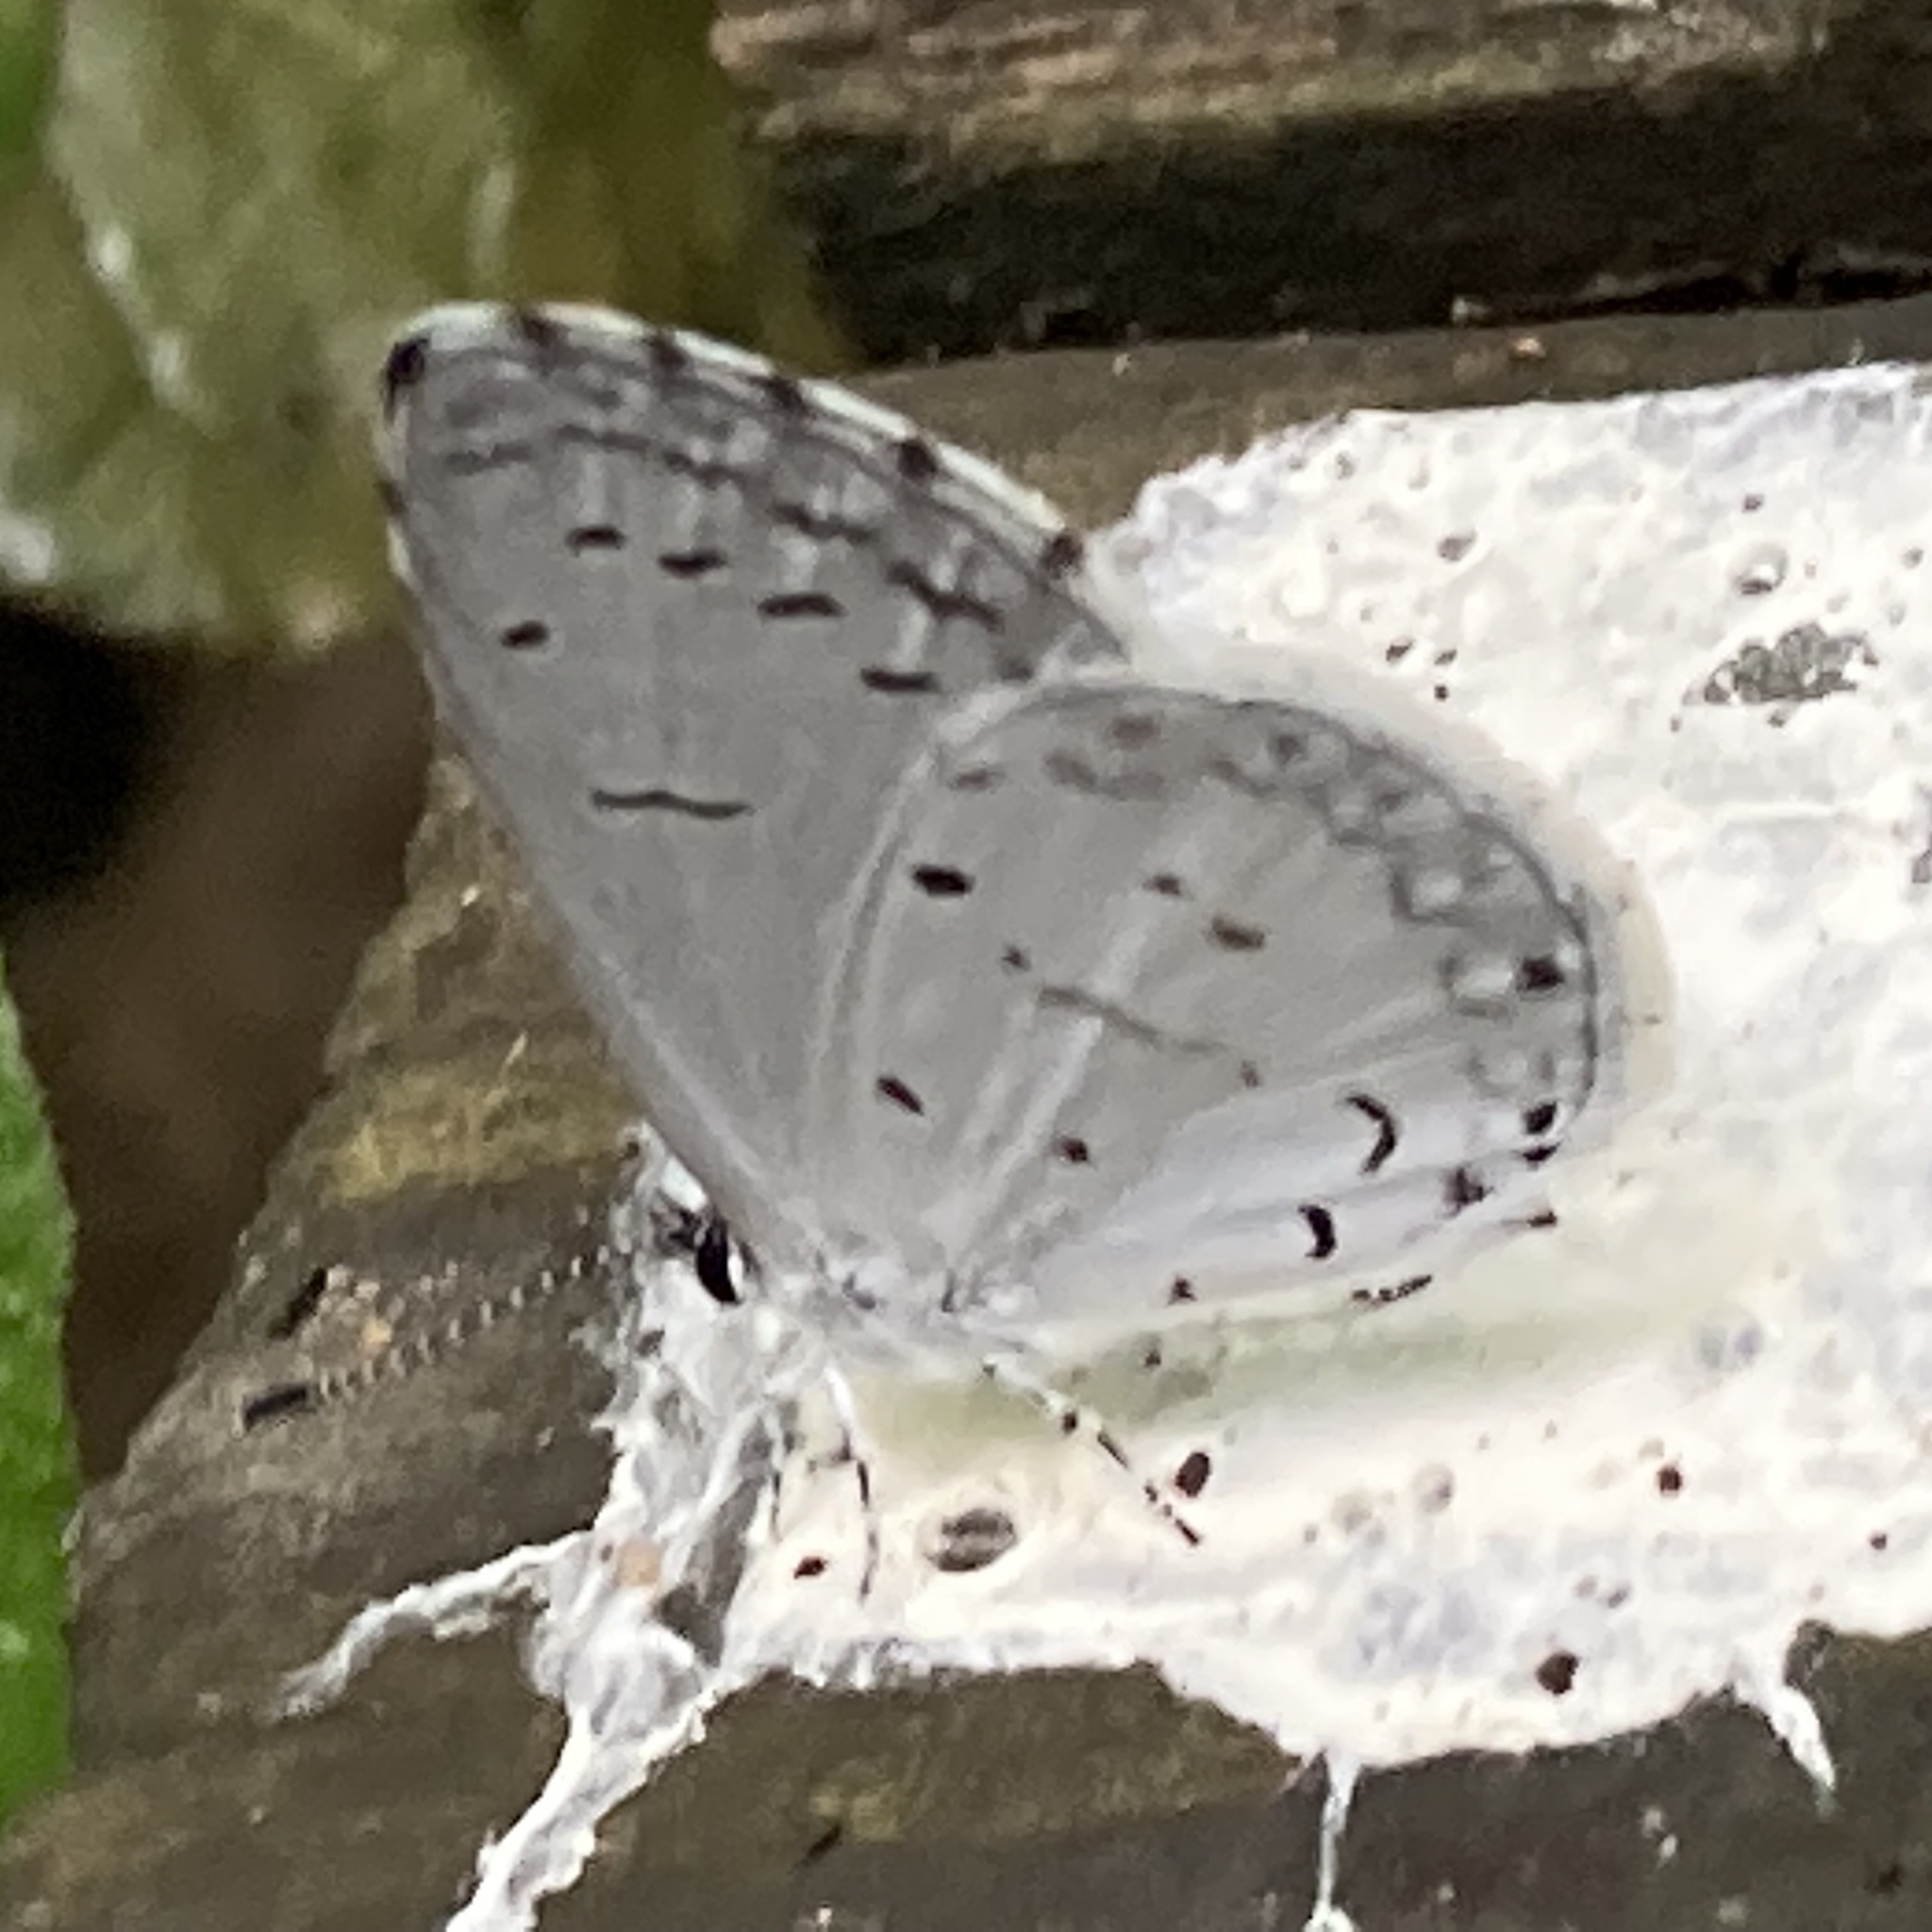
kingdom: Animalia
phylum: Arthropoda
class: Insecta
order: Lepidoptera
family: Lycaenidae
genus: Cyaniris
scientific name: Cyaniris neglecta
